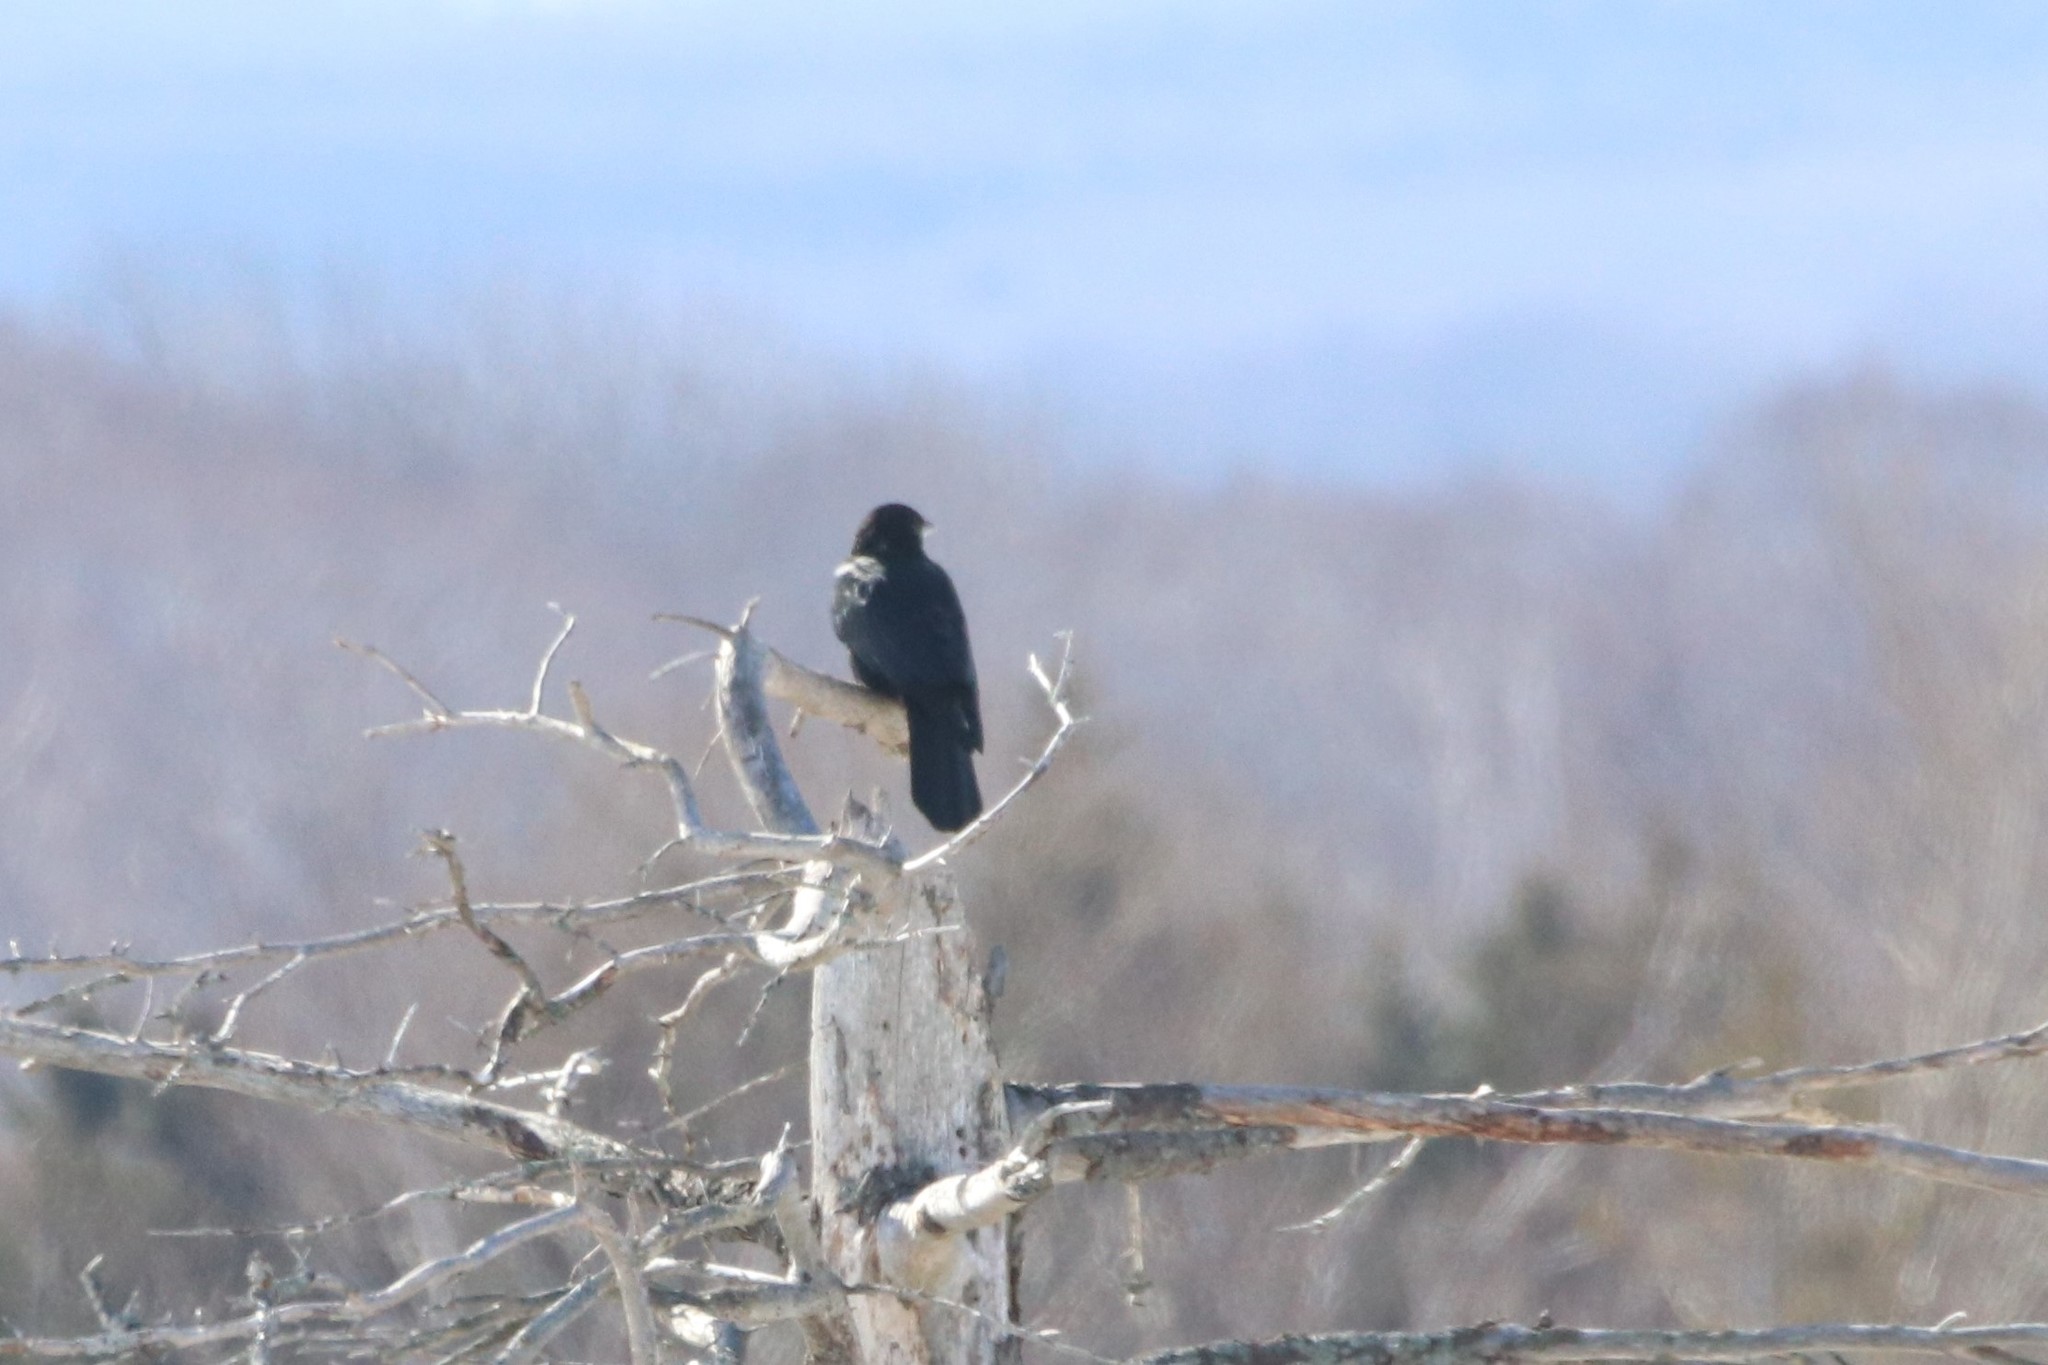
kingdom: Animalia
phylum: Chordata
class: Aves
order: Passeriformes
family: Corvidae
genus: Corvus
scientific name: Corvus brachyrhynchos
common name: American crow
